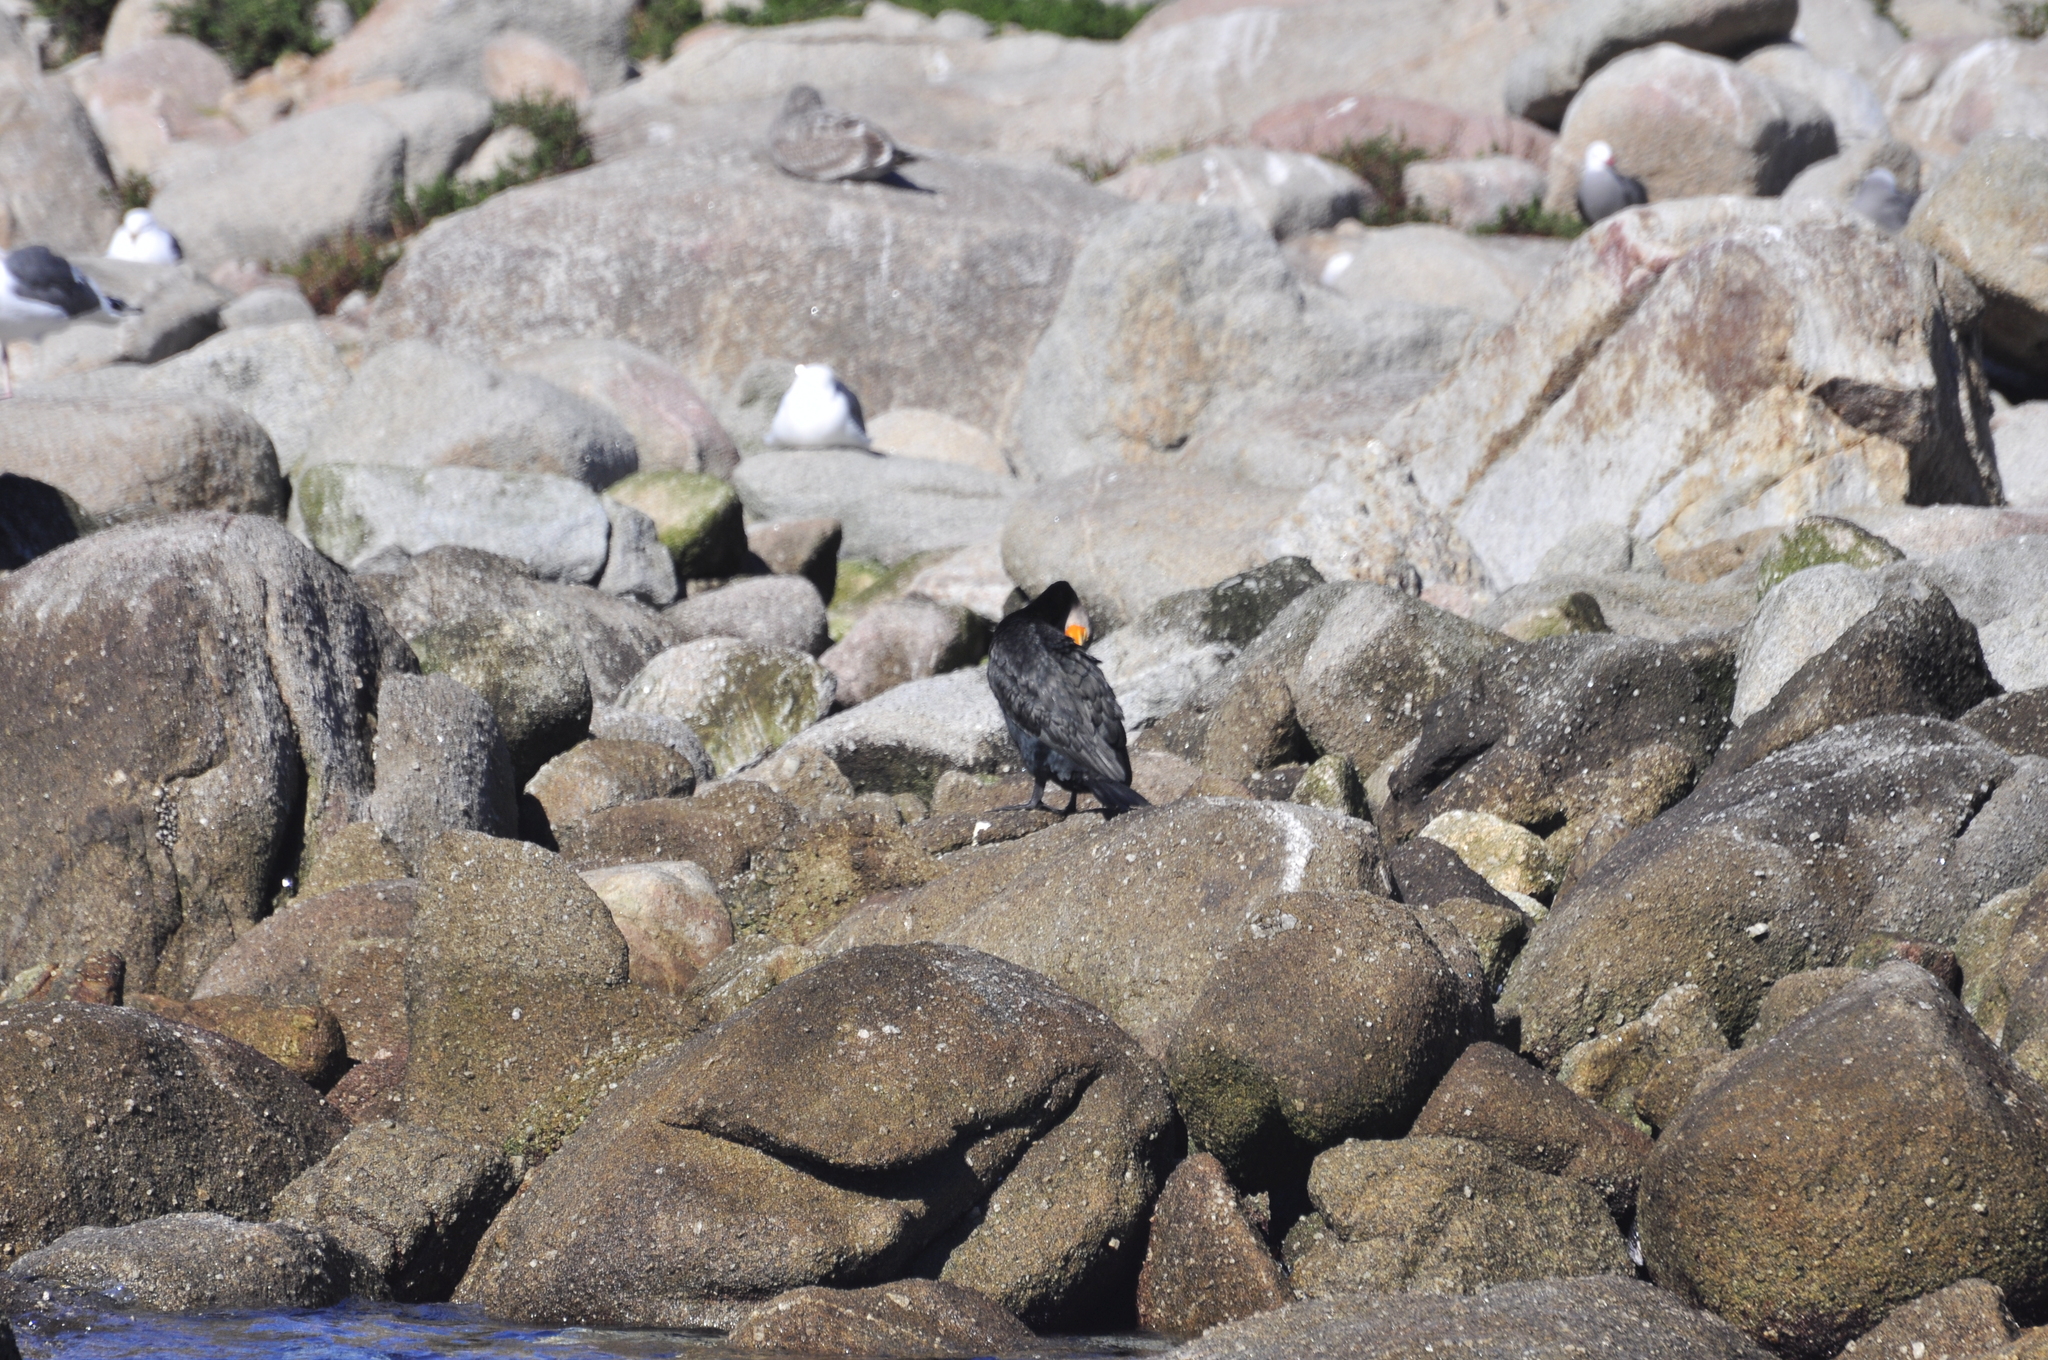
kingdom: Animalia
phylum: Chordata
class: Aves
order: Suliformes
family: Phalacrocoracidae
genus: Phalacrocorax
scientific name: Phalacrocorax auritus
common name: Double-crested cormorant
